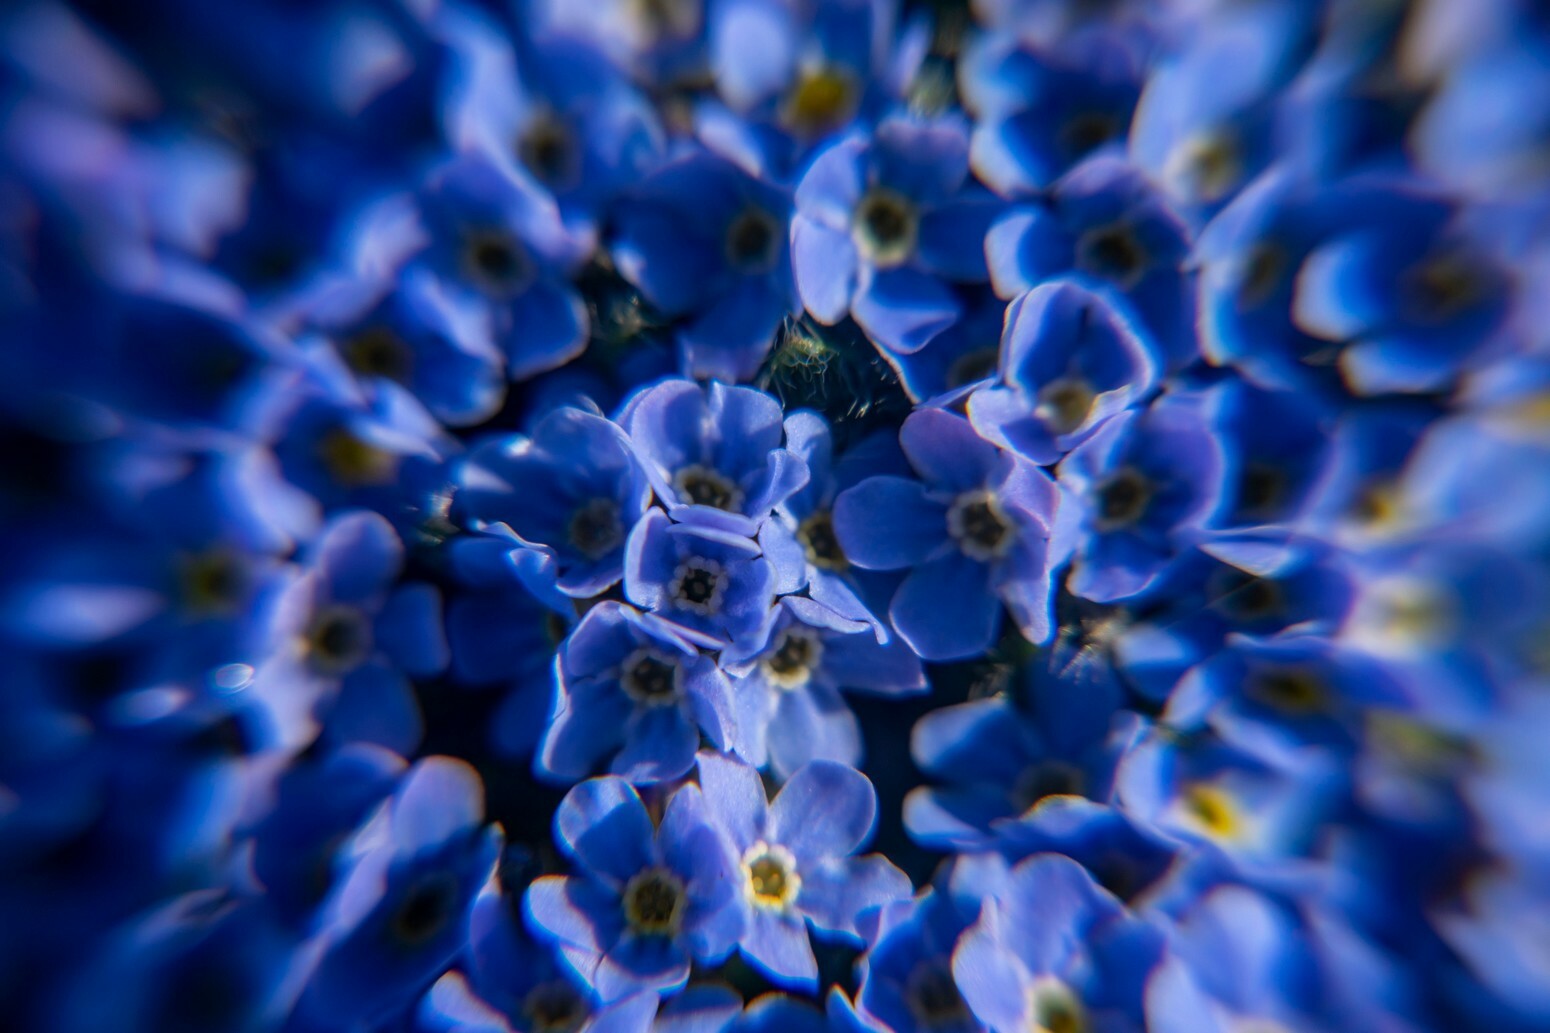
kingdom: Plantae
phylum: Tracheophyta
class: Magnoliopsida
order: Boraginales
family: Boraginaceae
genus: Eritrichium
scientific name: Eritrichium pulvinatum
